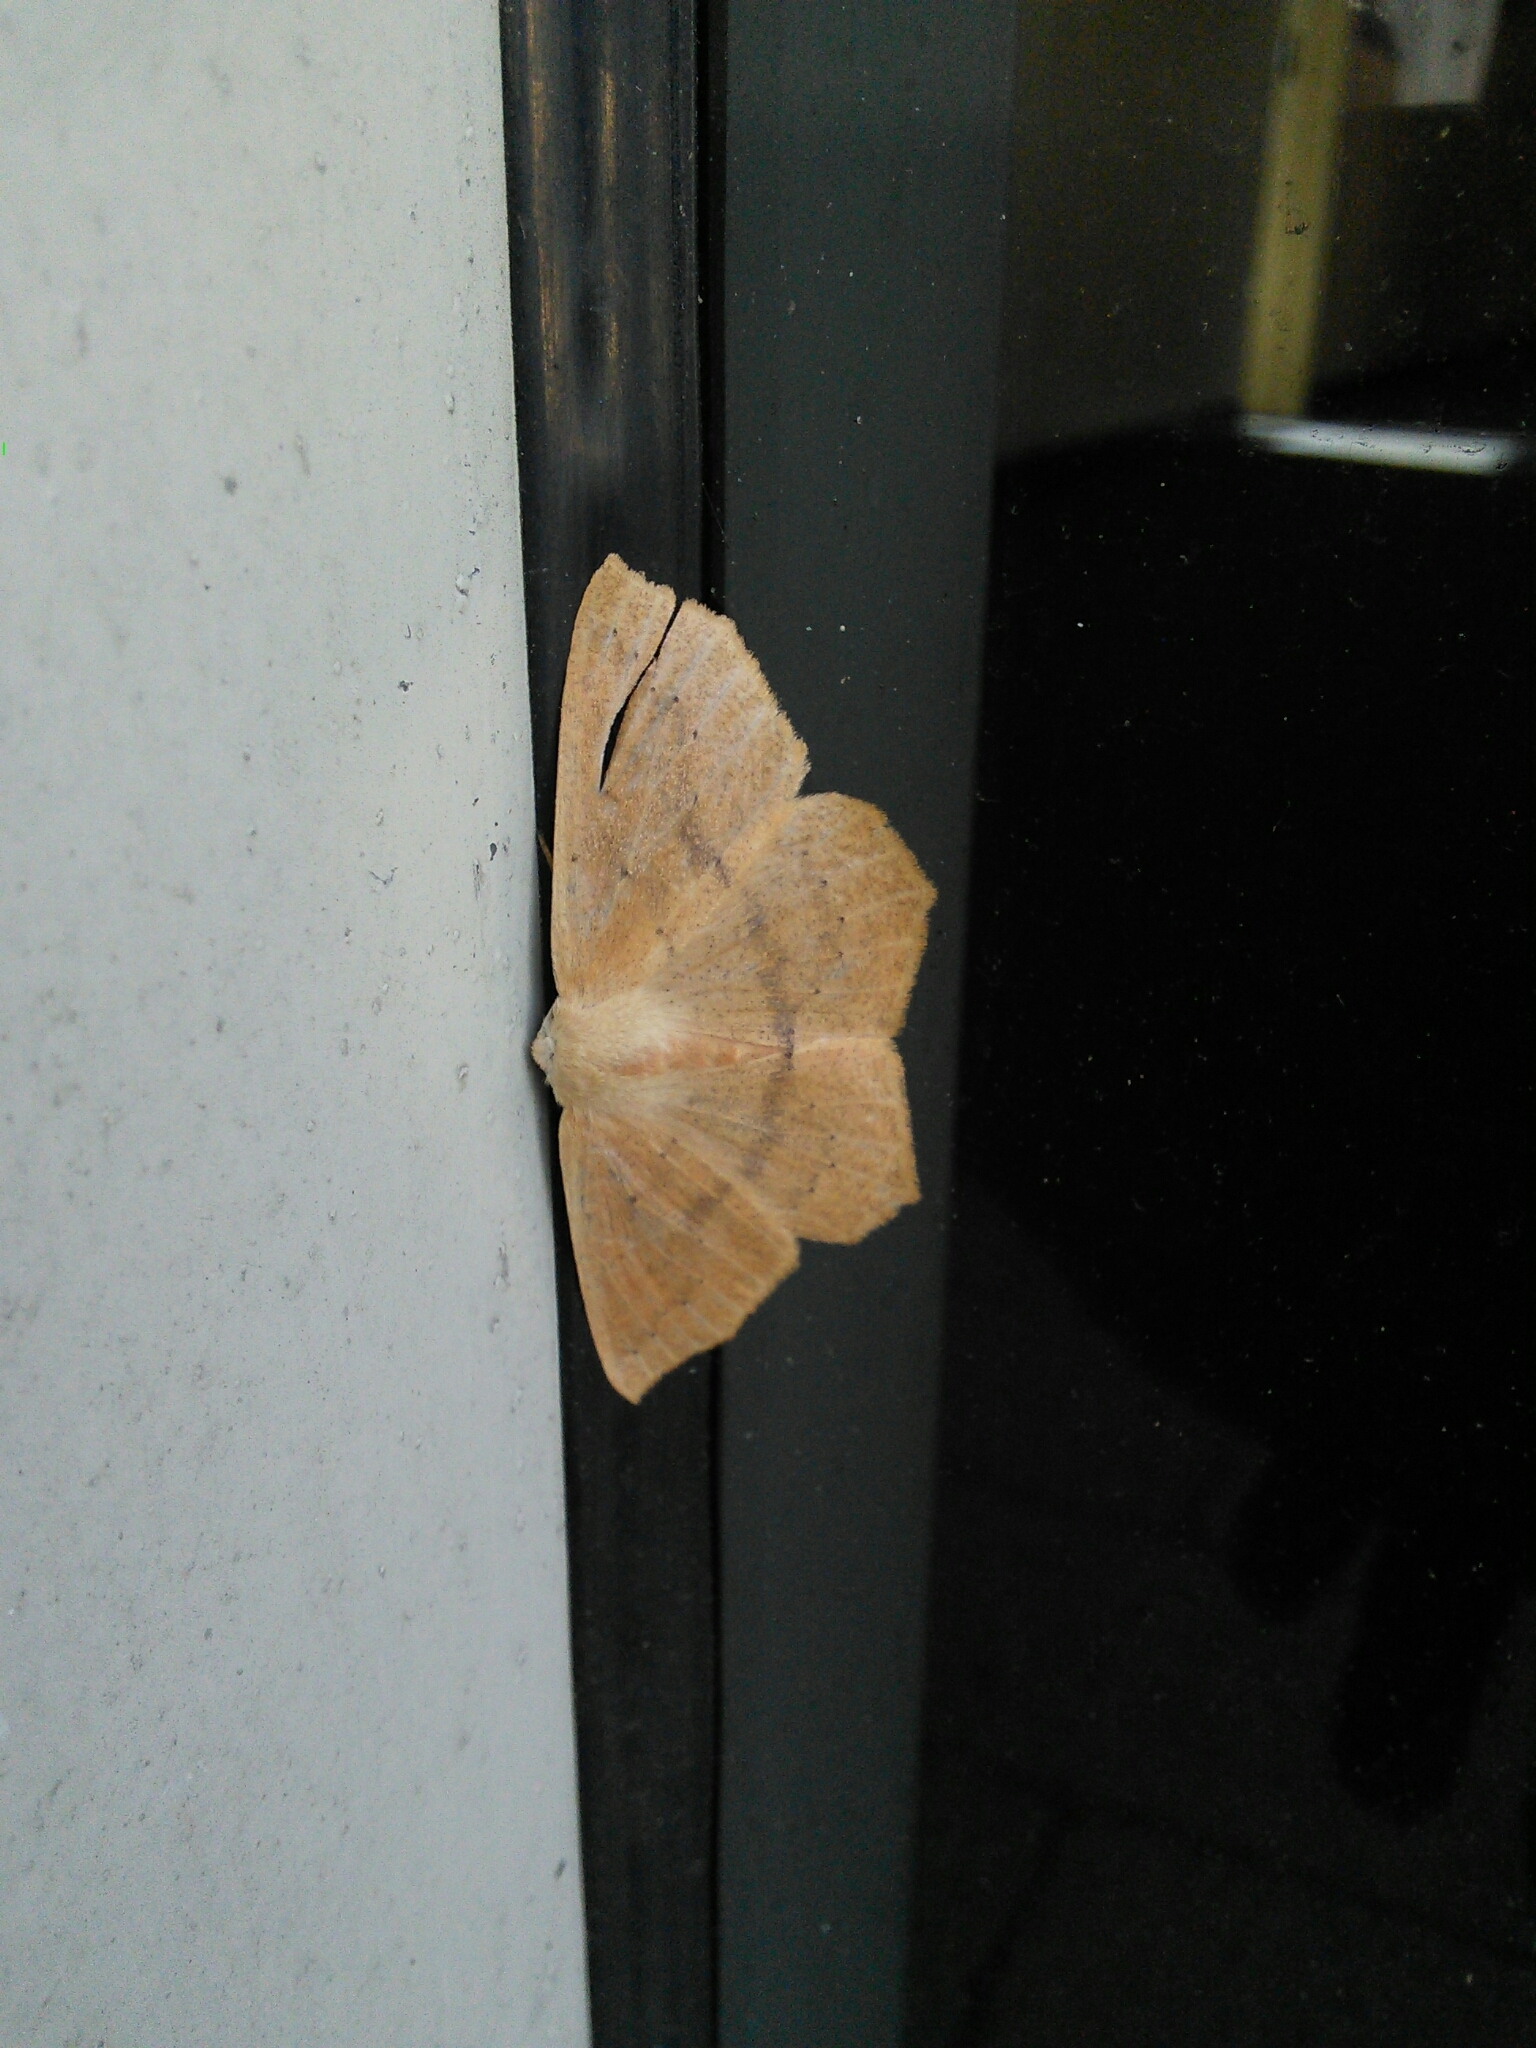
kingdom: Animalia
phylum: Arthropoda
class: Insecta
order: Lepidoptera
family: Geometridae
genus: Sabulodes
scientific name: Sabulodes aegrotata
